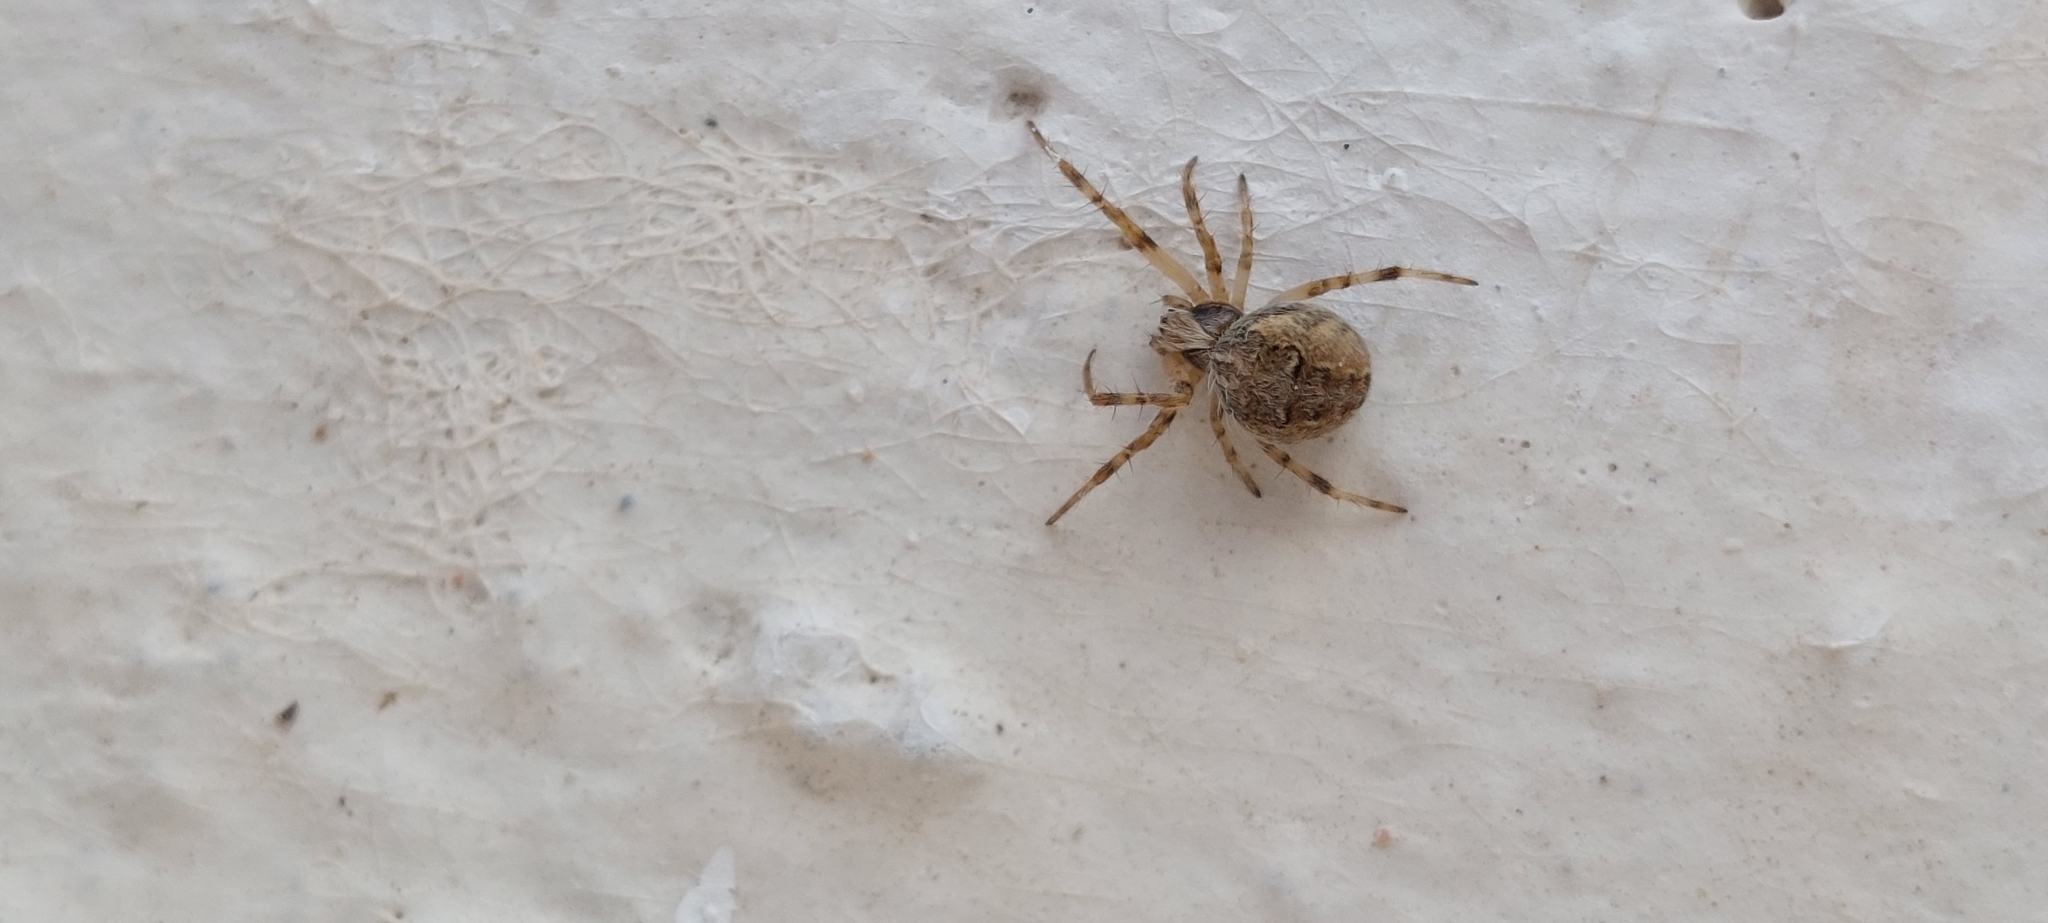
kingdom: Animalia
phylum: Arthropoda
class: Arachnida
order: Araneae
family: Araneidae
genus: Metepeira
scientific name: Metepeira
